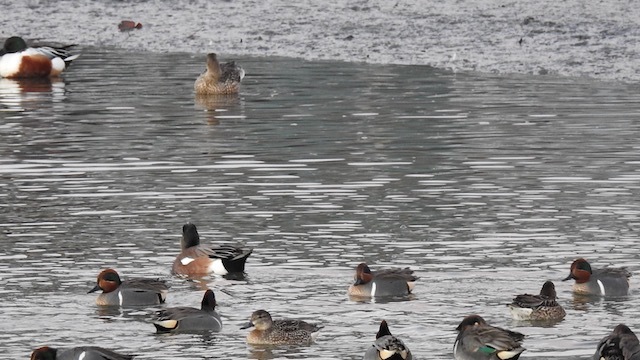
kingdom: Animalia
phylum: Chordata
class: Aves
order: Anseriformes
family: Anatidae
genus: Mareca
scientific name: Mareca americana
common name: American wigeon
